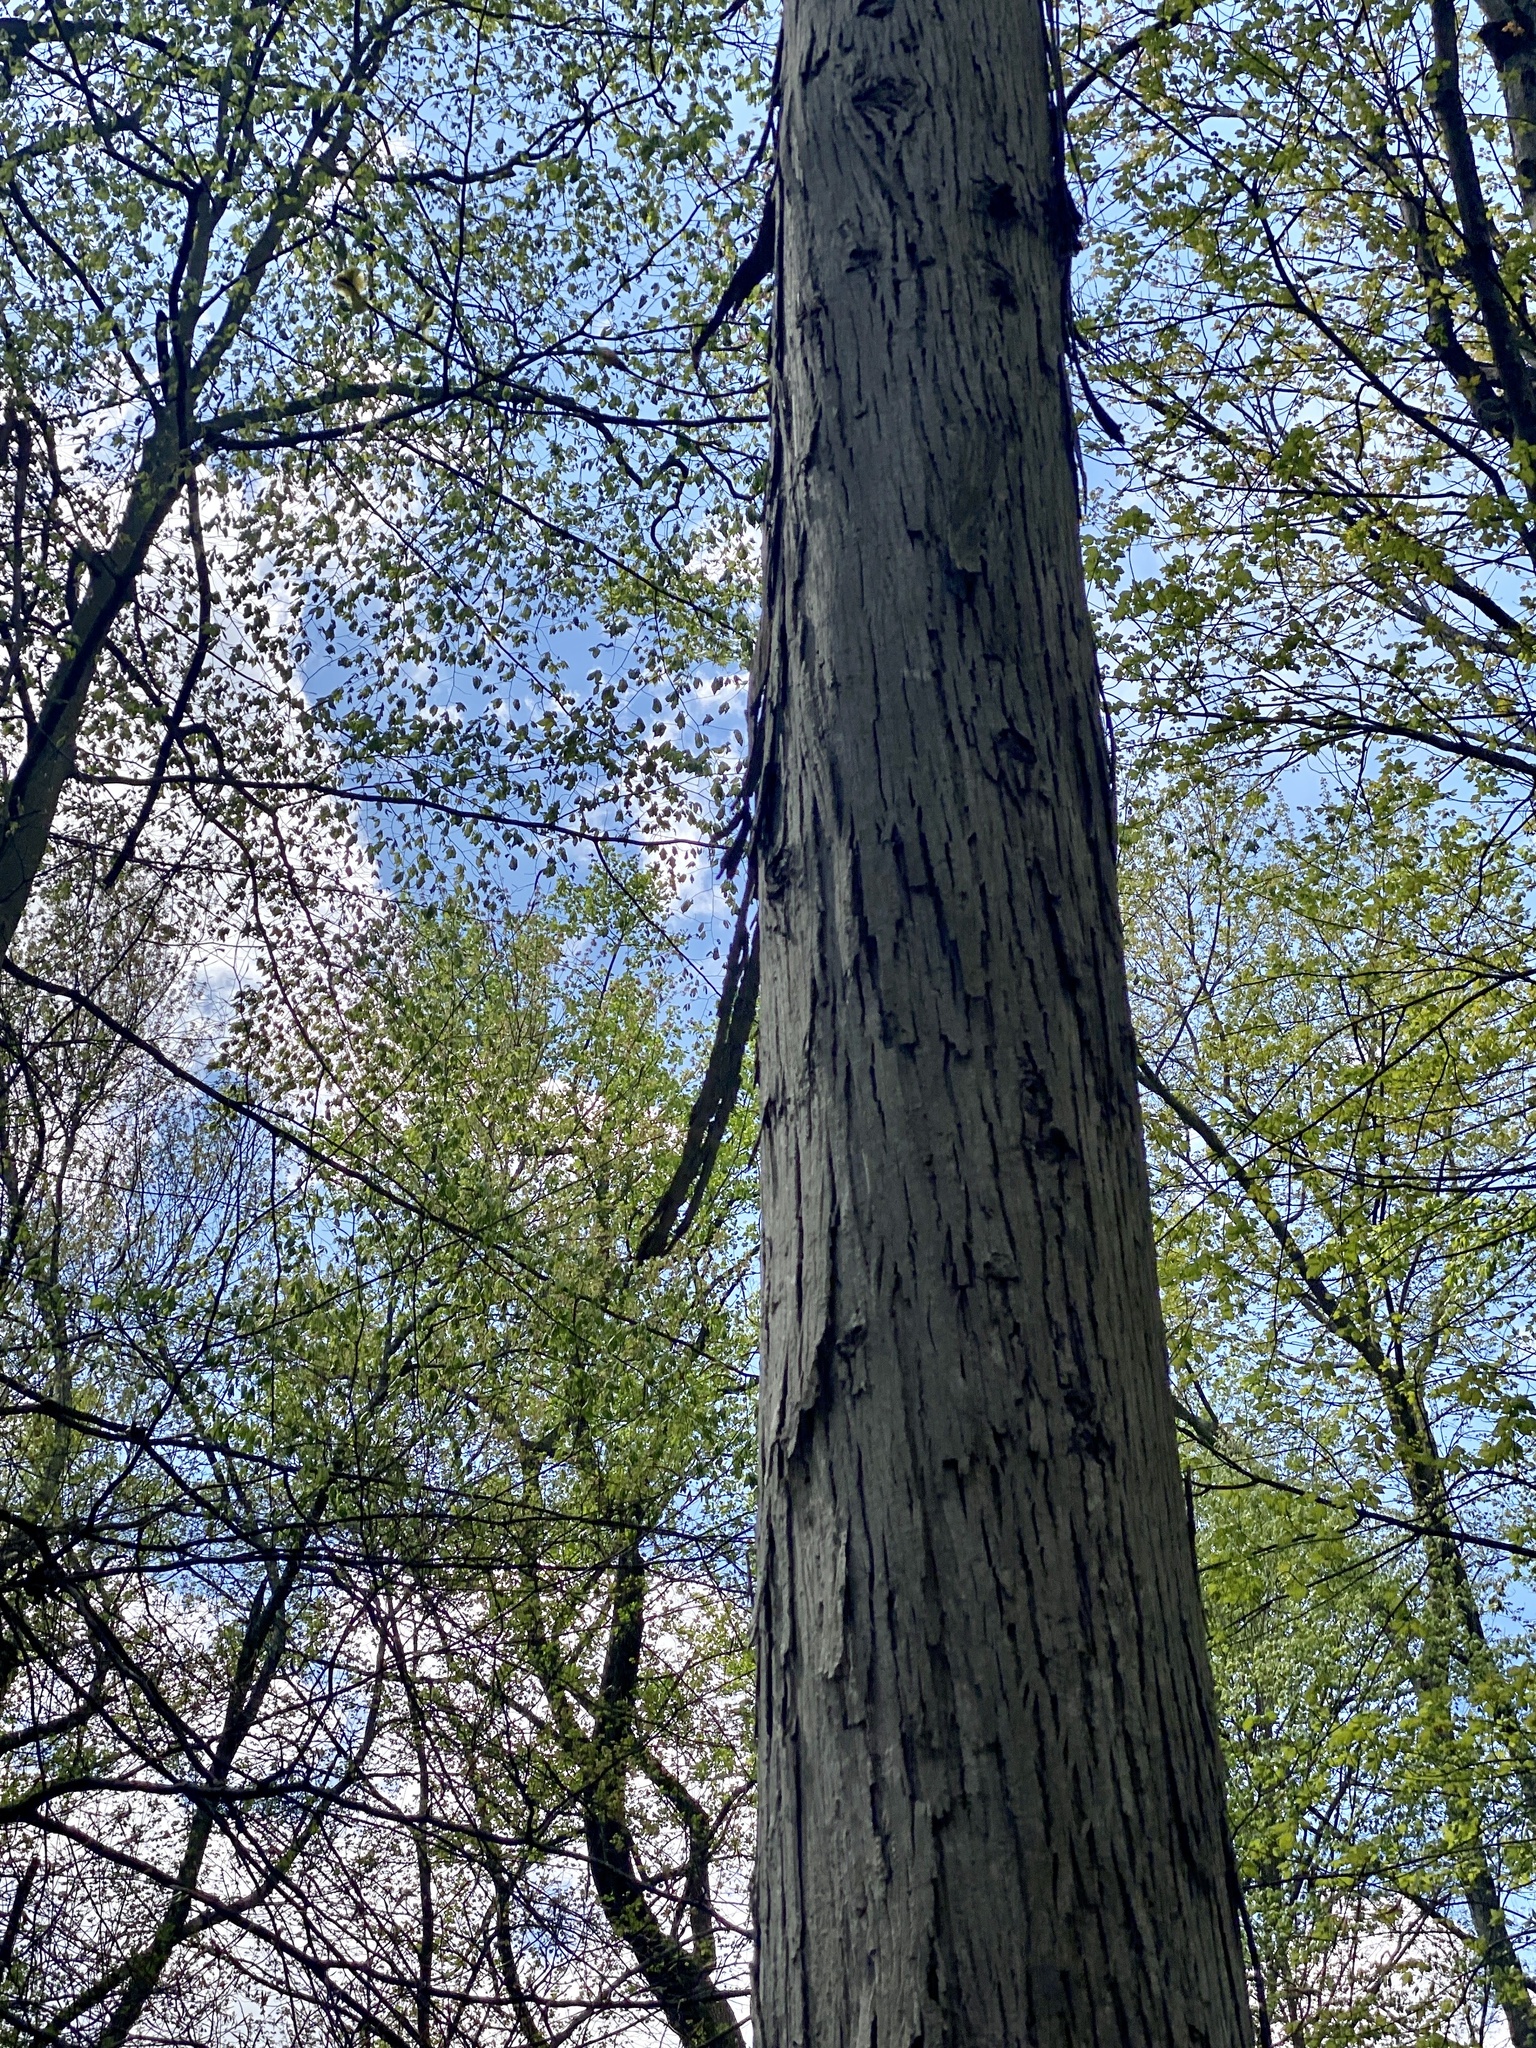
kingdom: Plantae
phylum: Tracheophyta
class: Magnoliopsida
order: Fagales
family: Juglandaceae
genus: Carya
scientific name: Carya ovata
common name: Shagbark hickory
